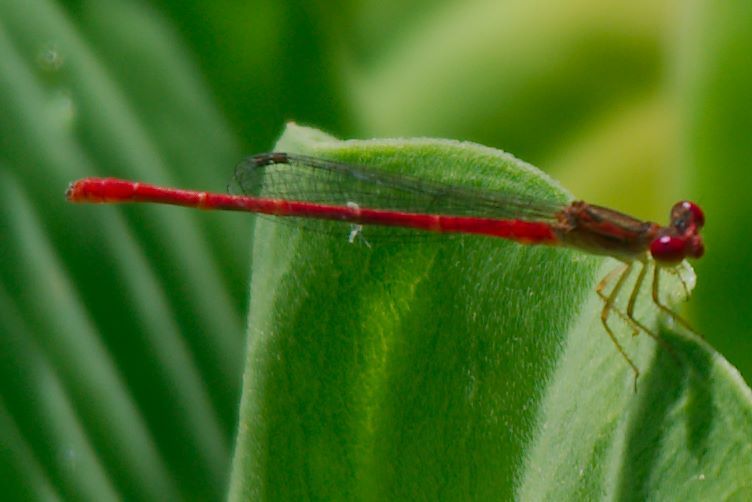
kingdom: Animalia
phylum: Arthropoda
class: Insecta
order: Odonata
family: Coenagrionidae
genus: Telebasis
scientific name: Telebasis byersi
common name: Duckweed firetail
